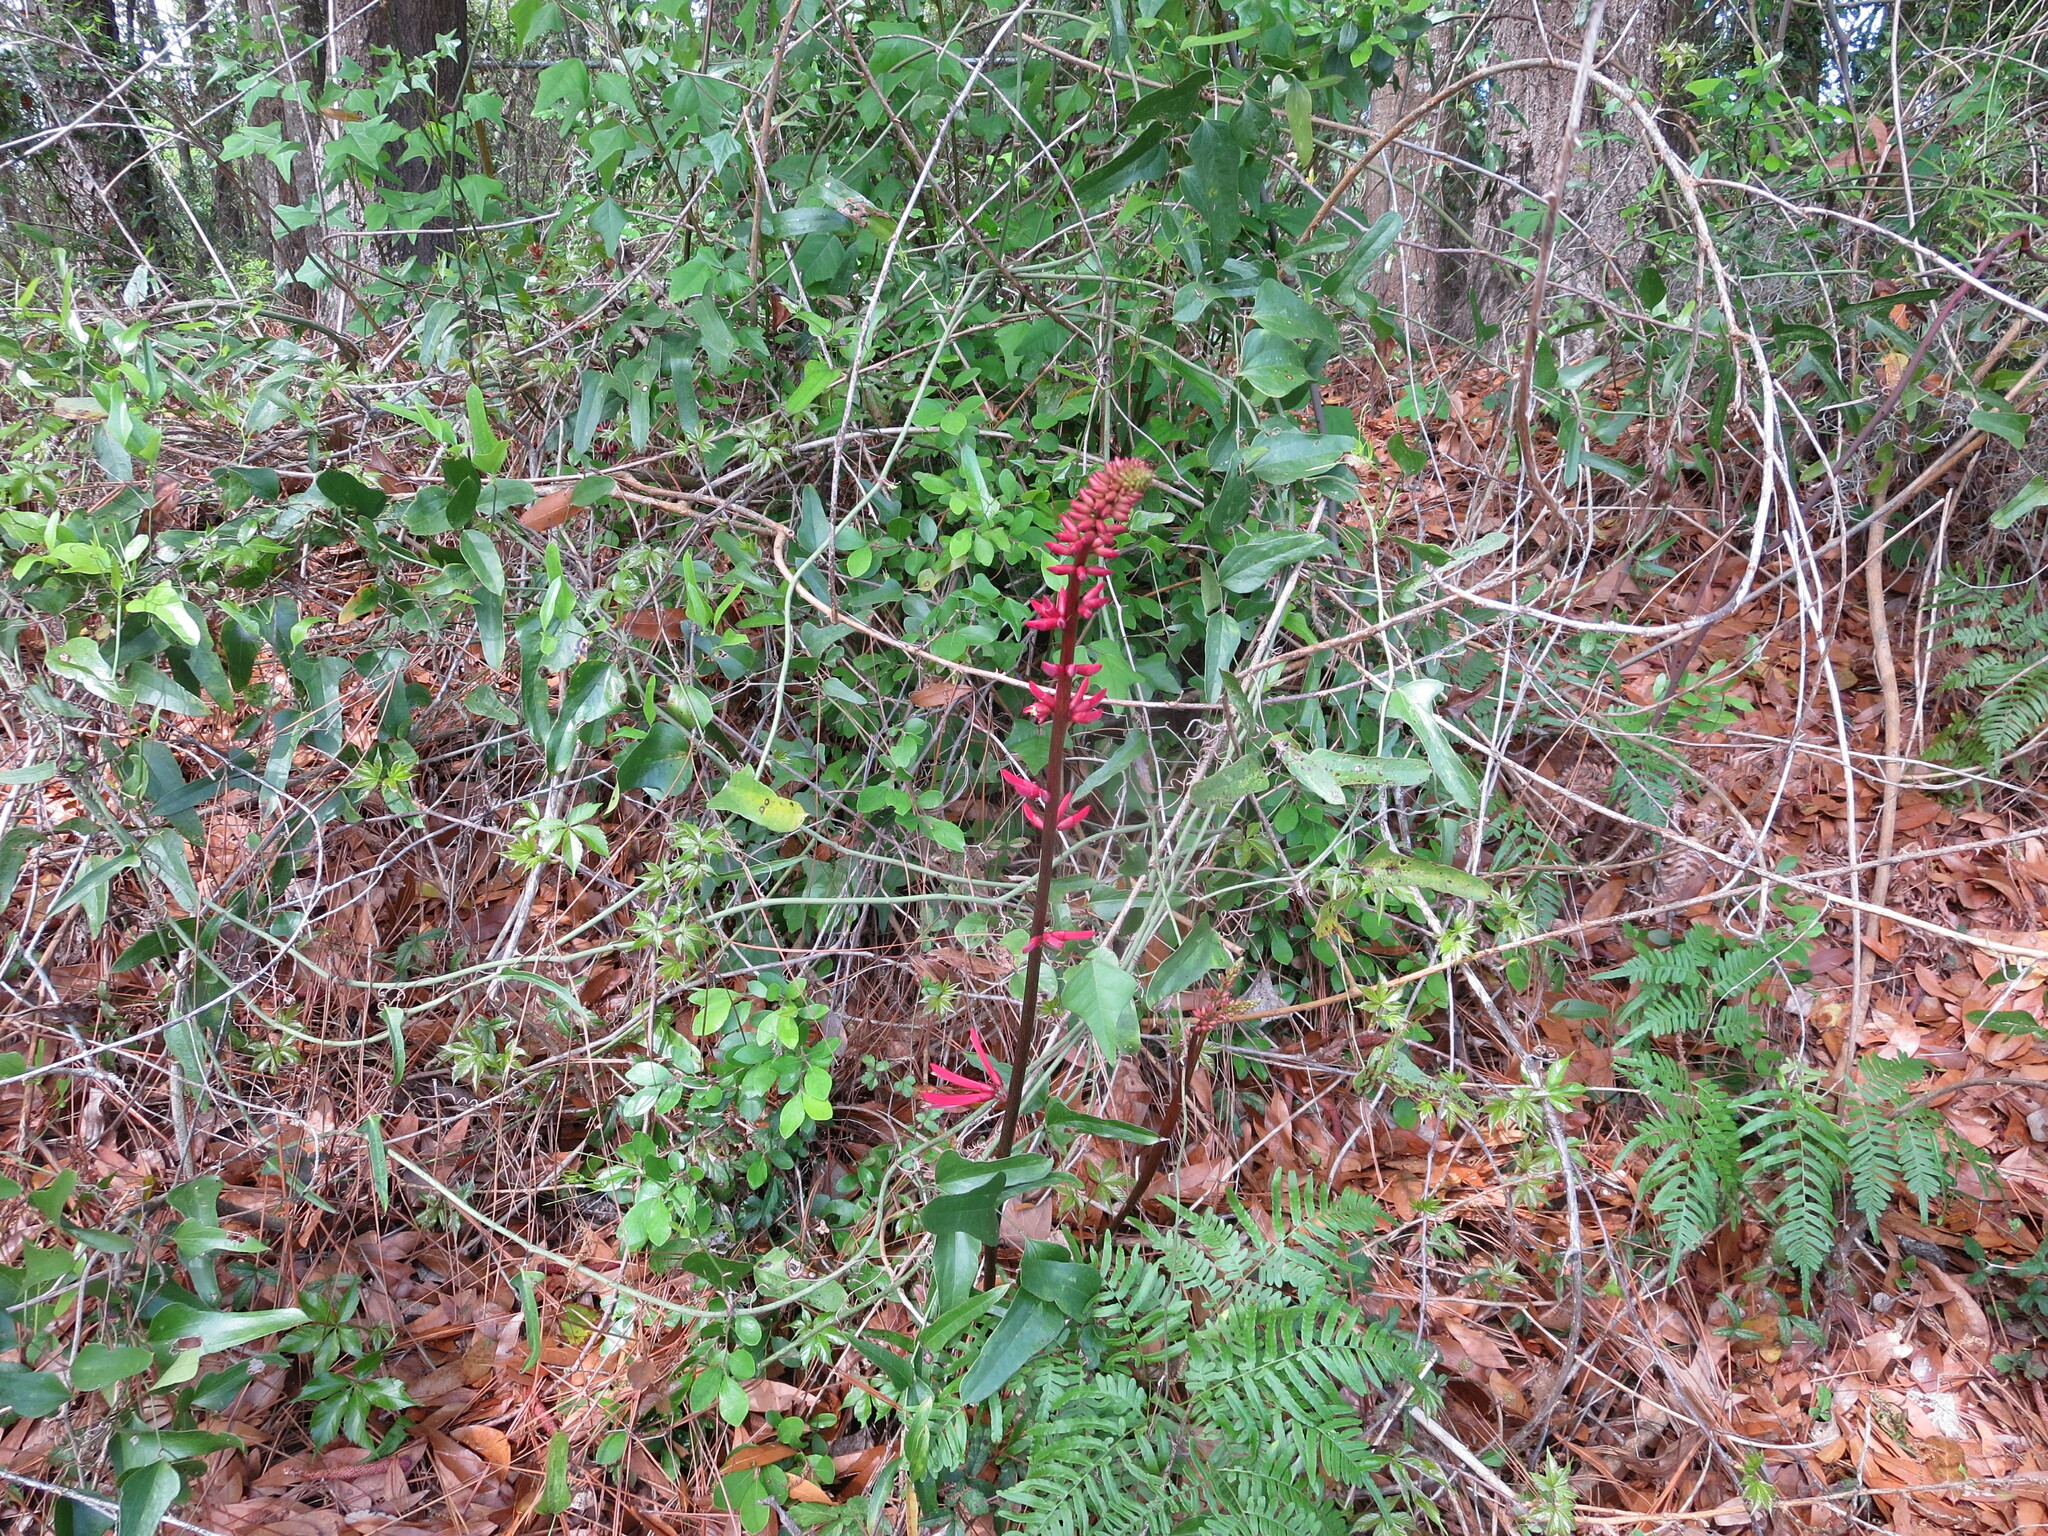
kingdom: Plantae
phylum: Tracheophyta
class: Magnoliopsida
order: Fabales
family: Fabaceae
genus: Erythrina
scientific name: Erythrina herbacea
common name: Coral-bean
